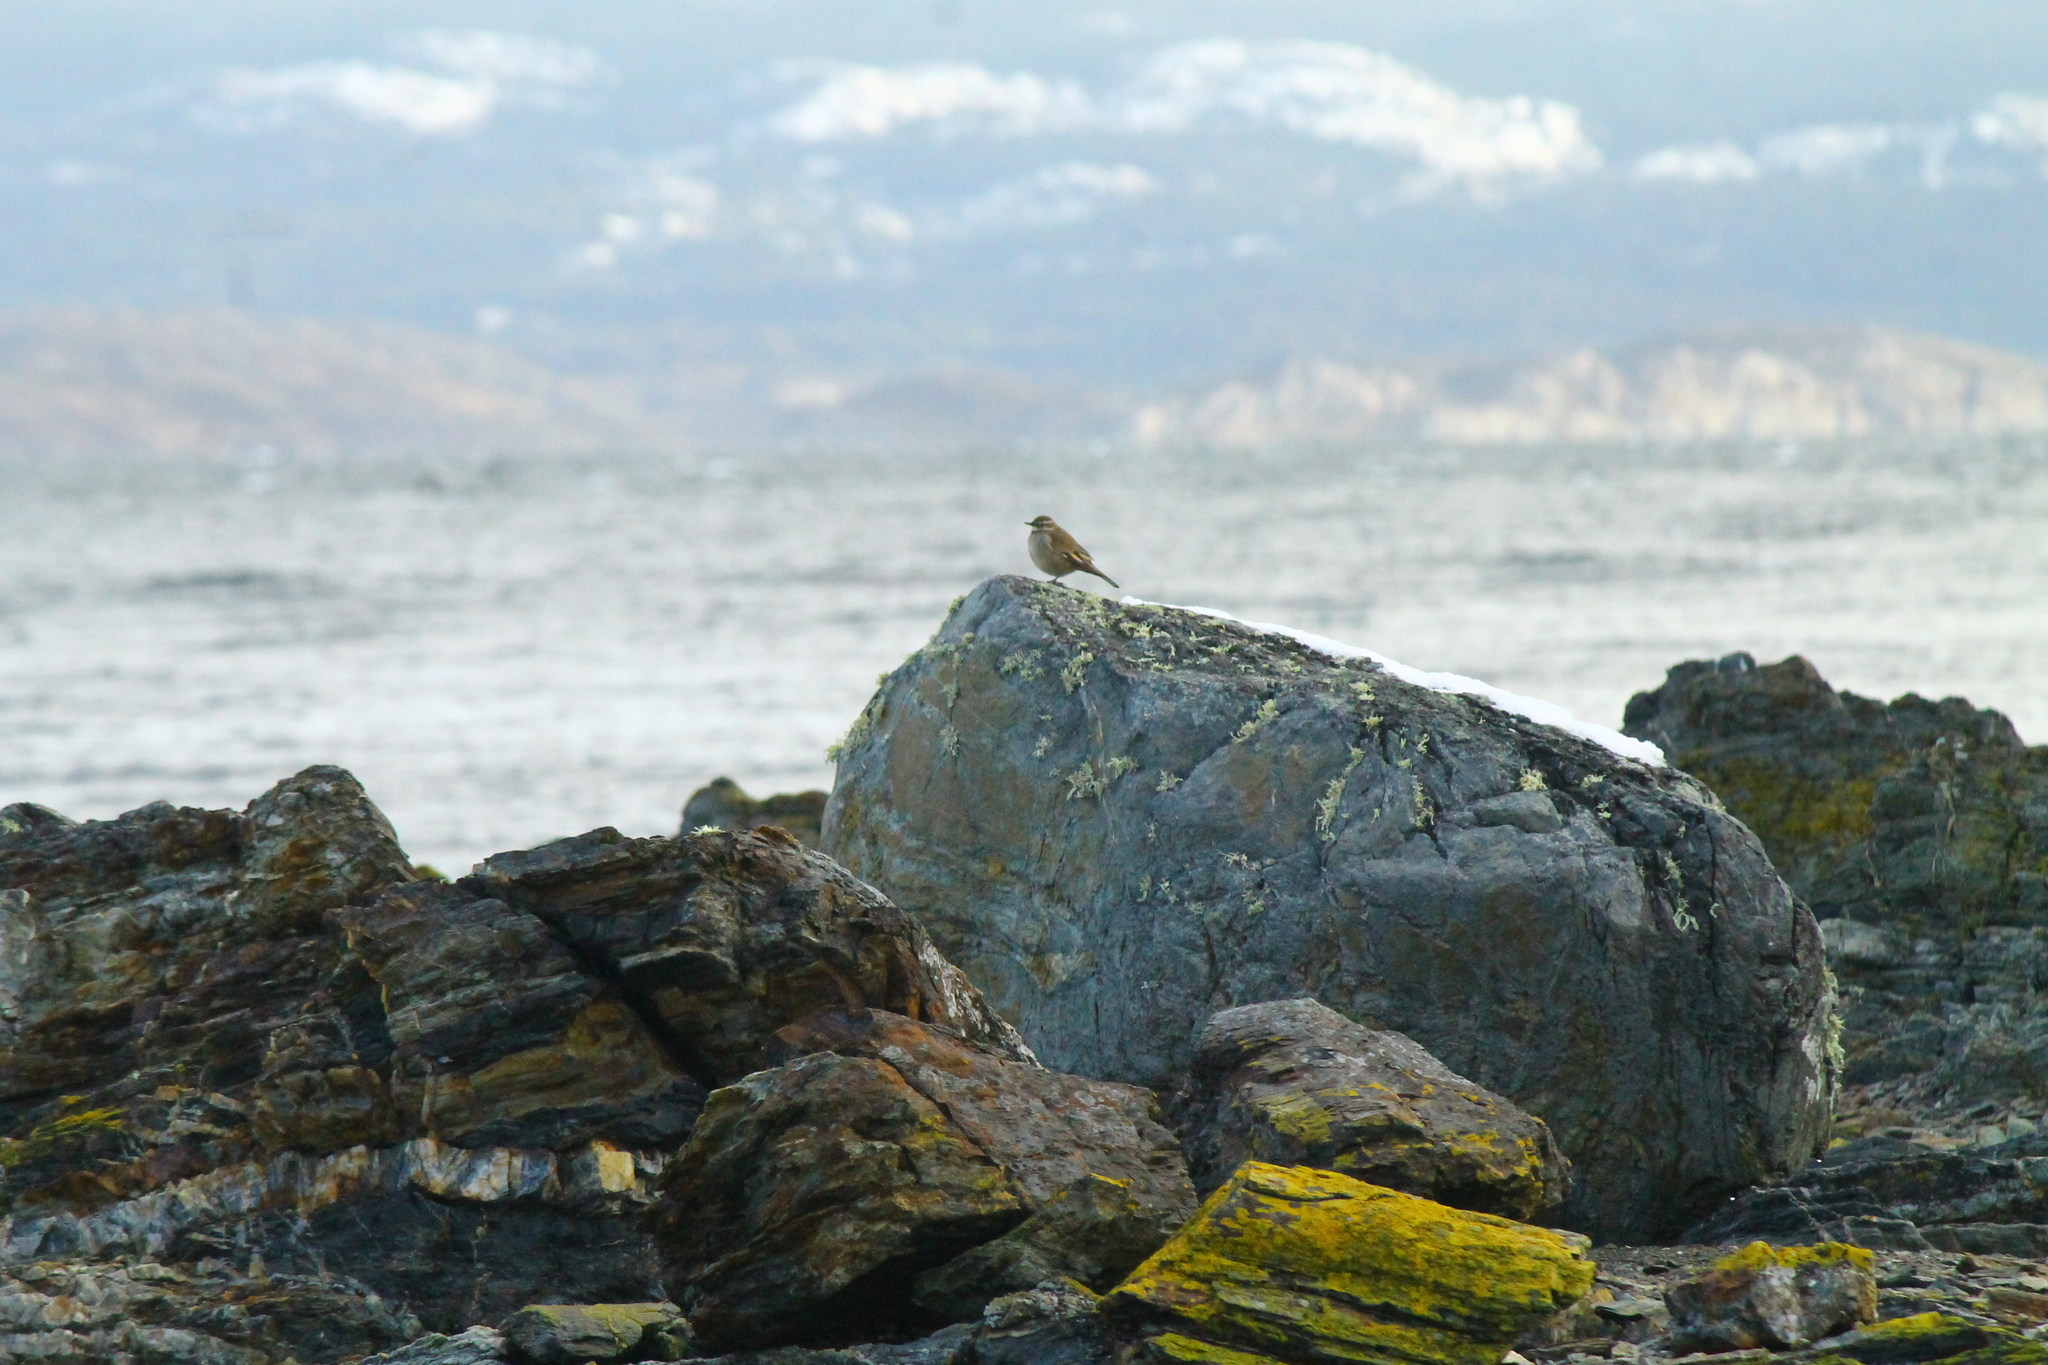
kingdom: Animalia
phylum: Chordata
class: Aves
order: Passeriformes
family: Furnariidae
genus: Cinclodes
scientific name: Cinclodes fuscus
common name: Buff-winged cinclodes
